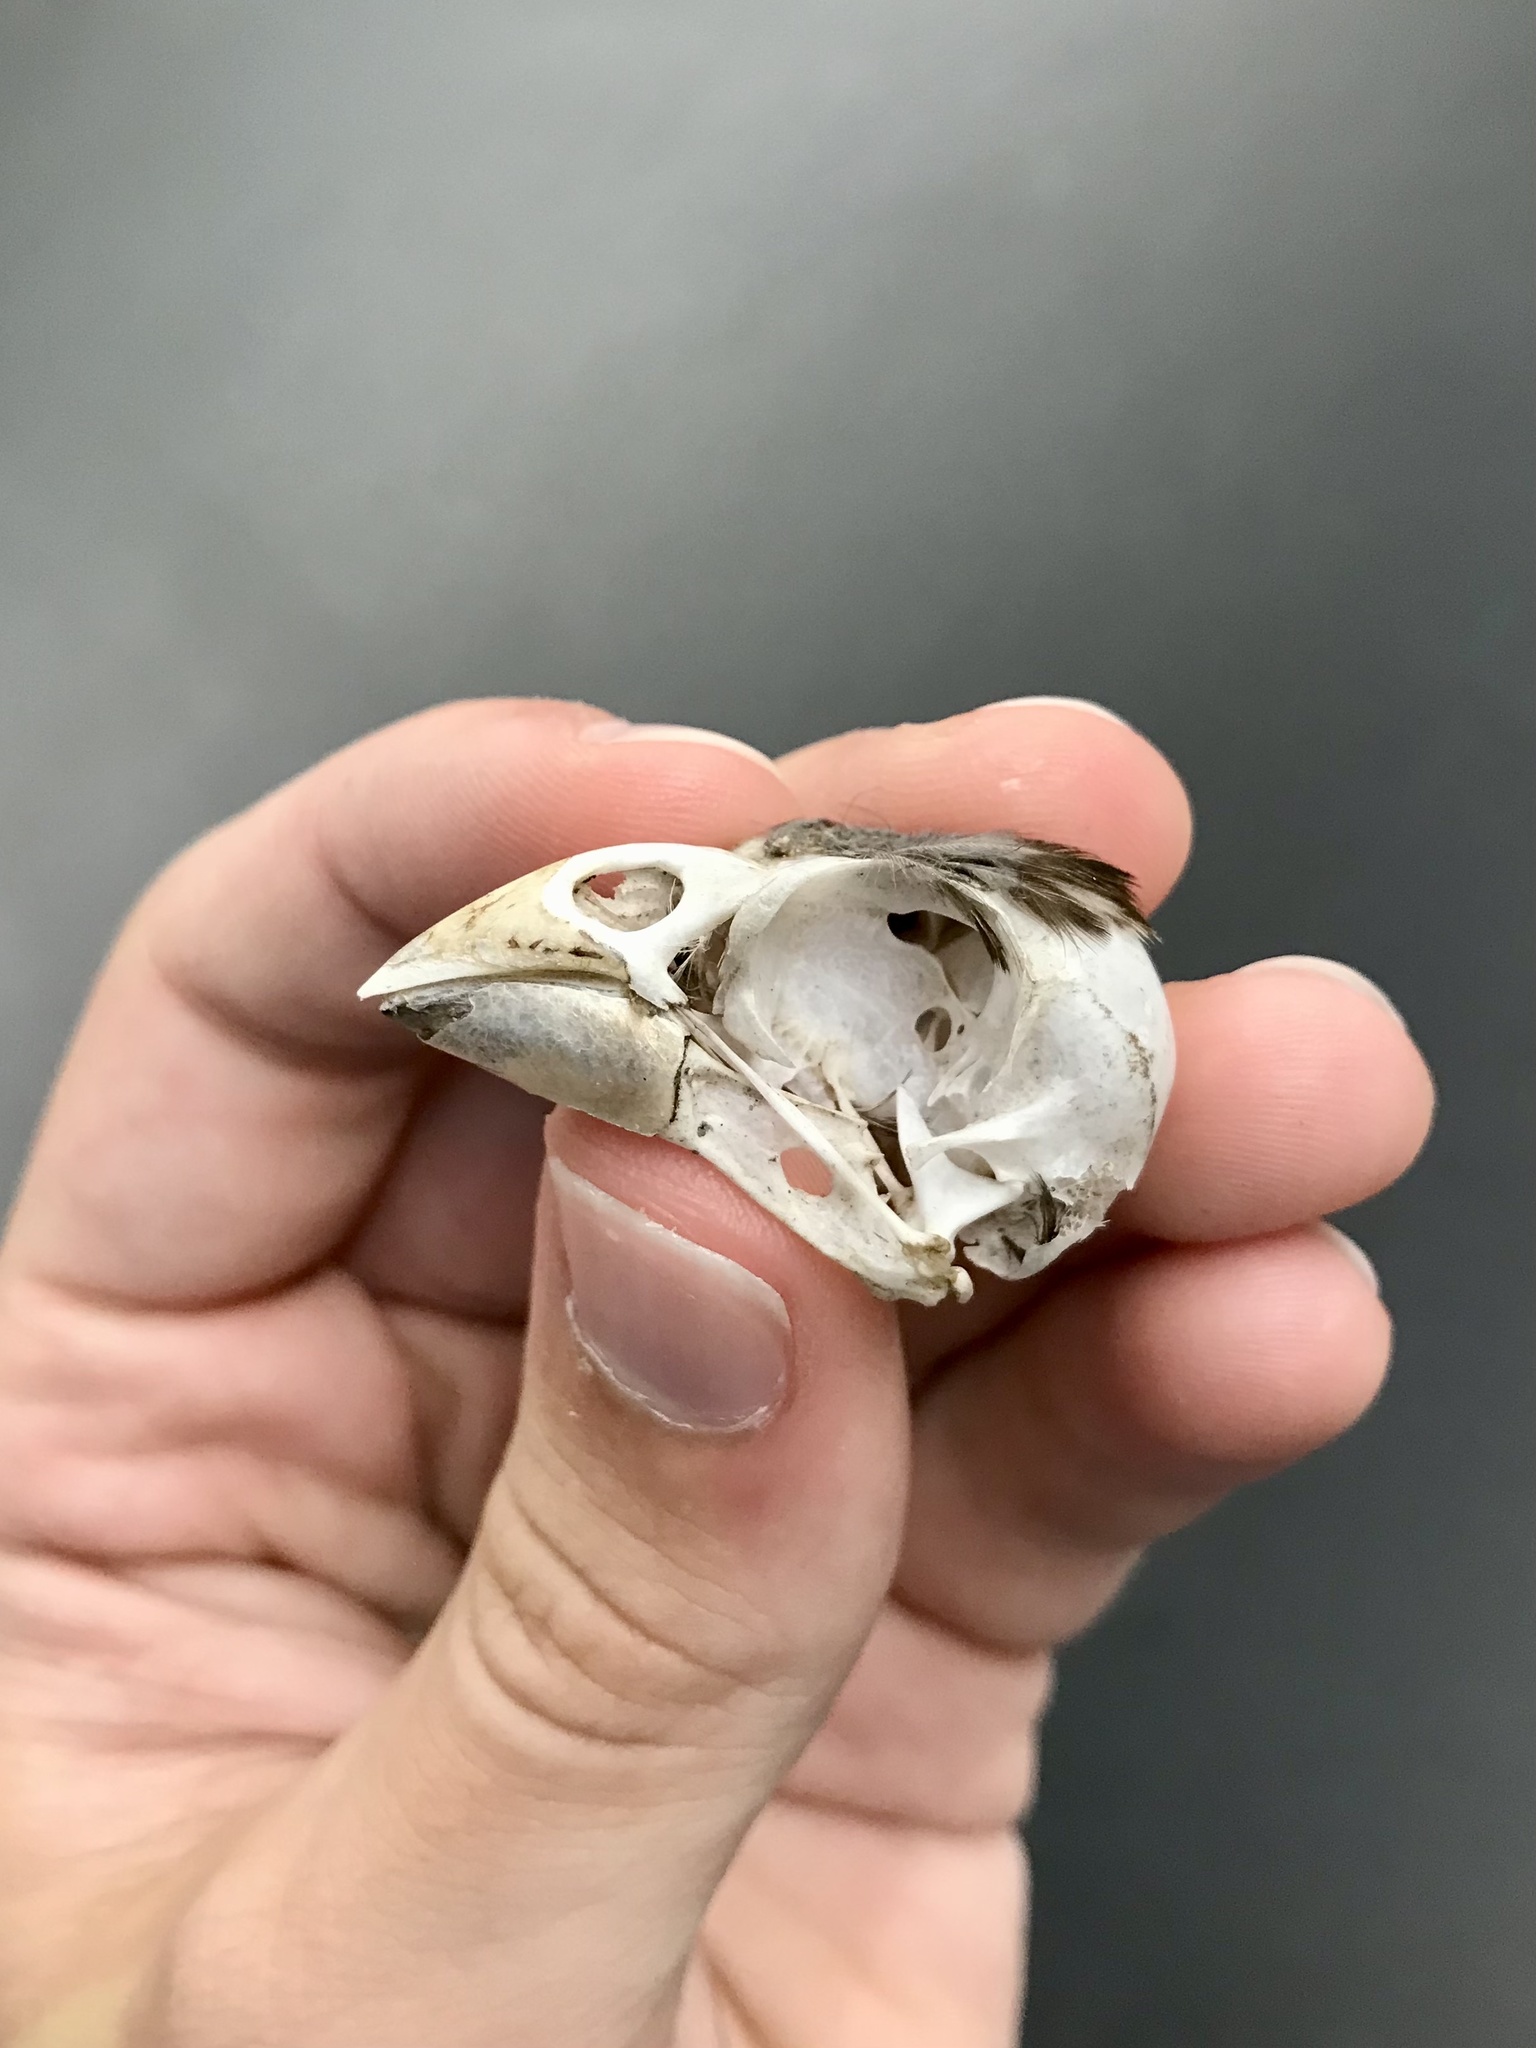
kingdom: Animalia
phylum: Chordata
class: Aves
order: Passeriformes
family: Cardinalidae
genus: Pheucticus
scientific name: Pheucticus ludovicianus
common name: Rose-breasted grosbeak
